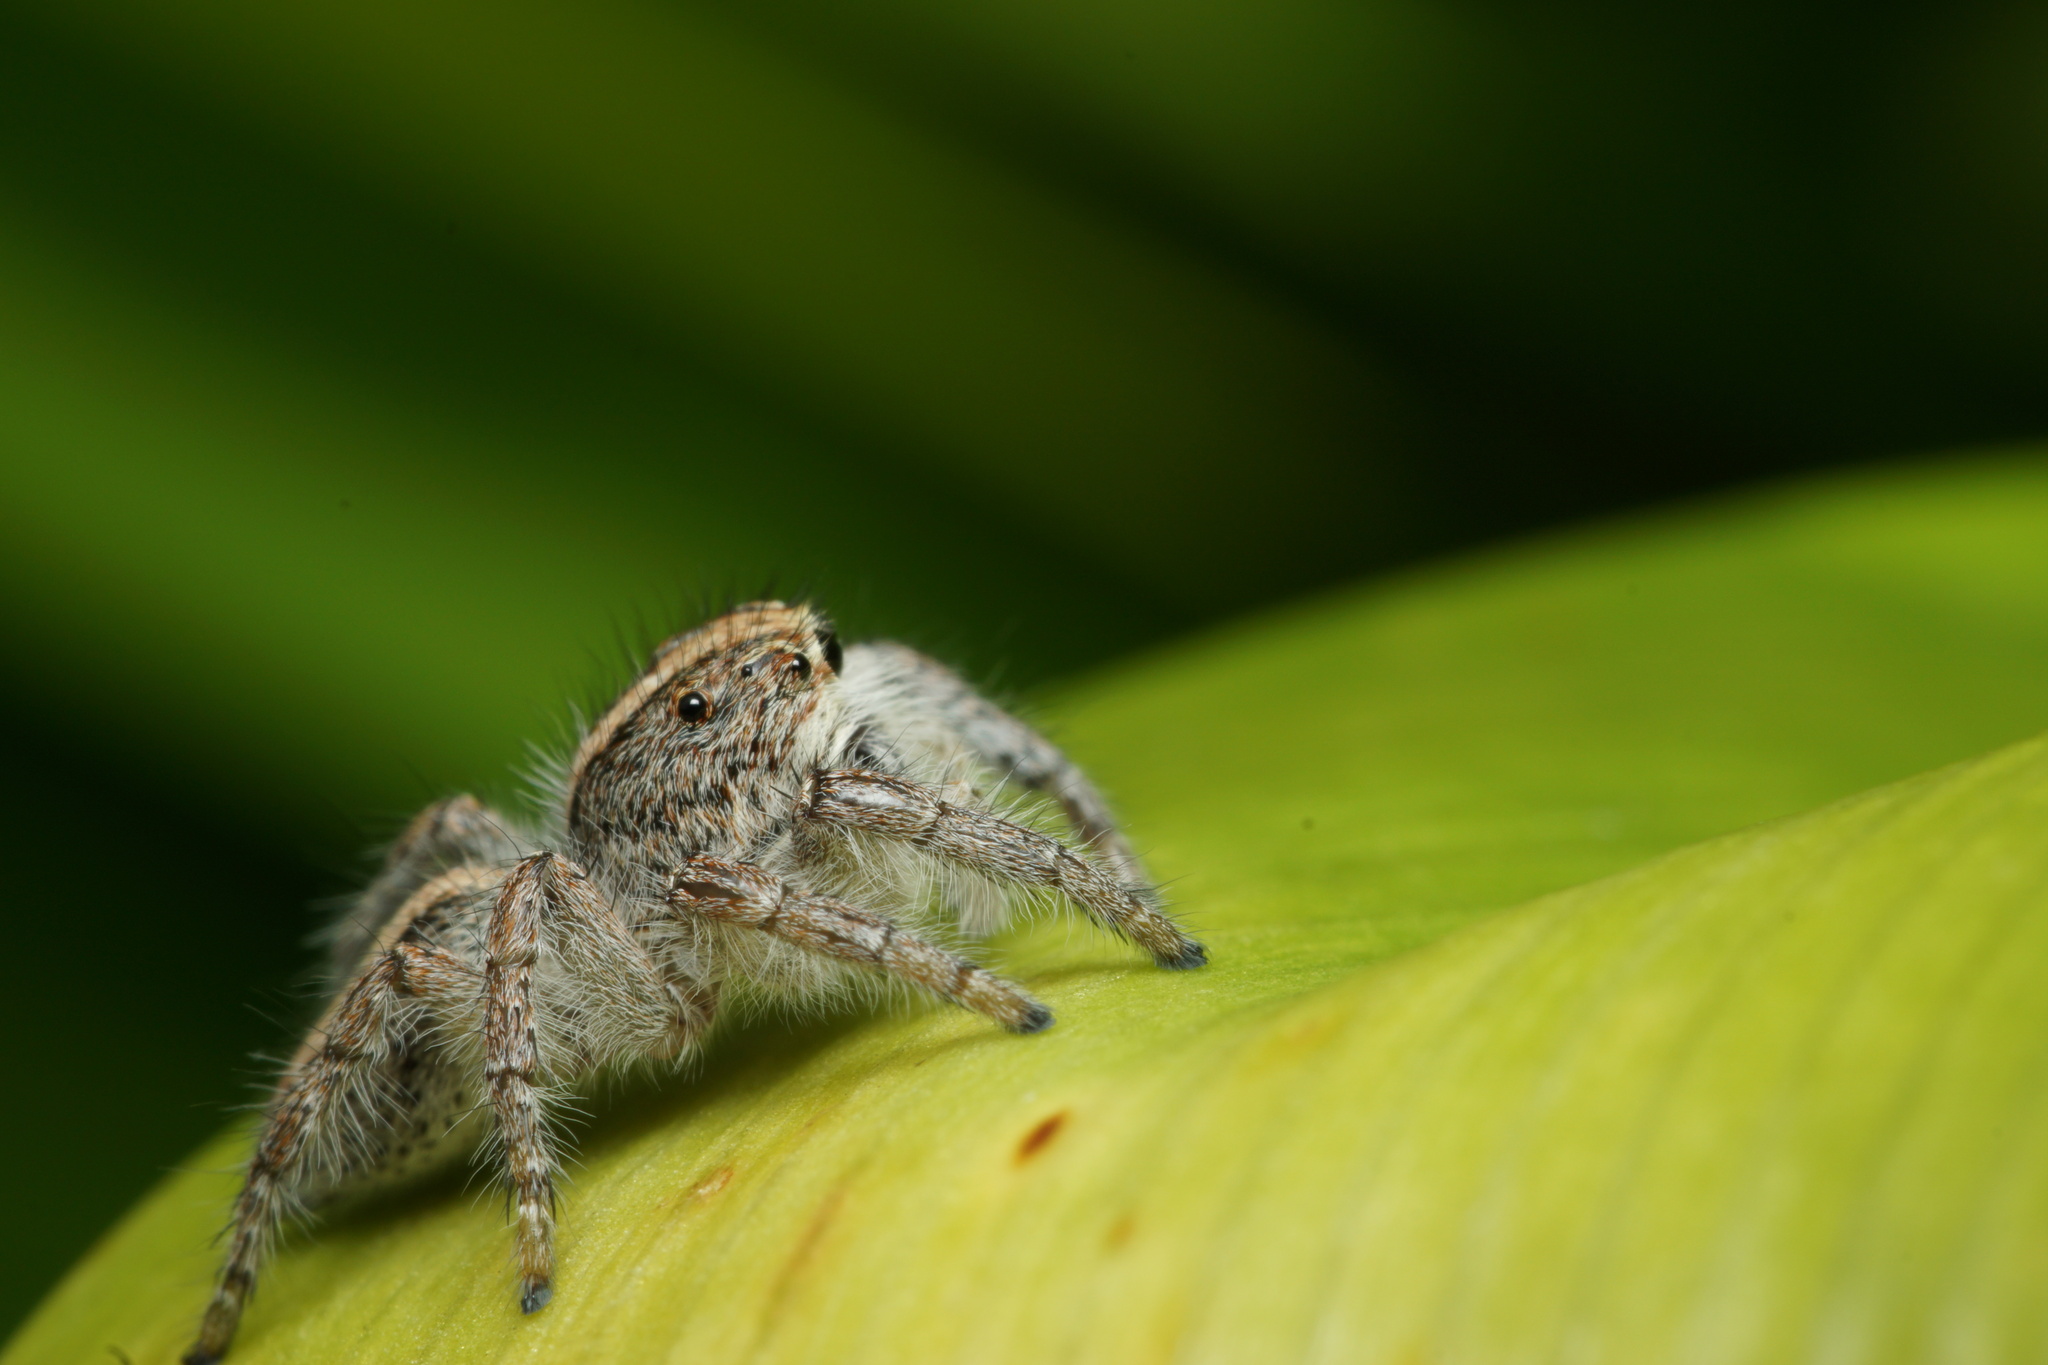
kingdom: Animalia
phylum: Arthropoda
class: Arachnida
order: Araneae
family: Salticidae
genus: Megafreya
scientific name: Megafreya sutrix
